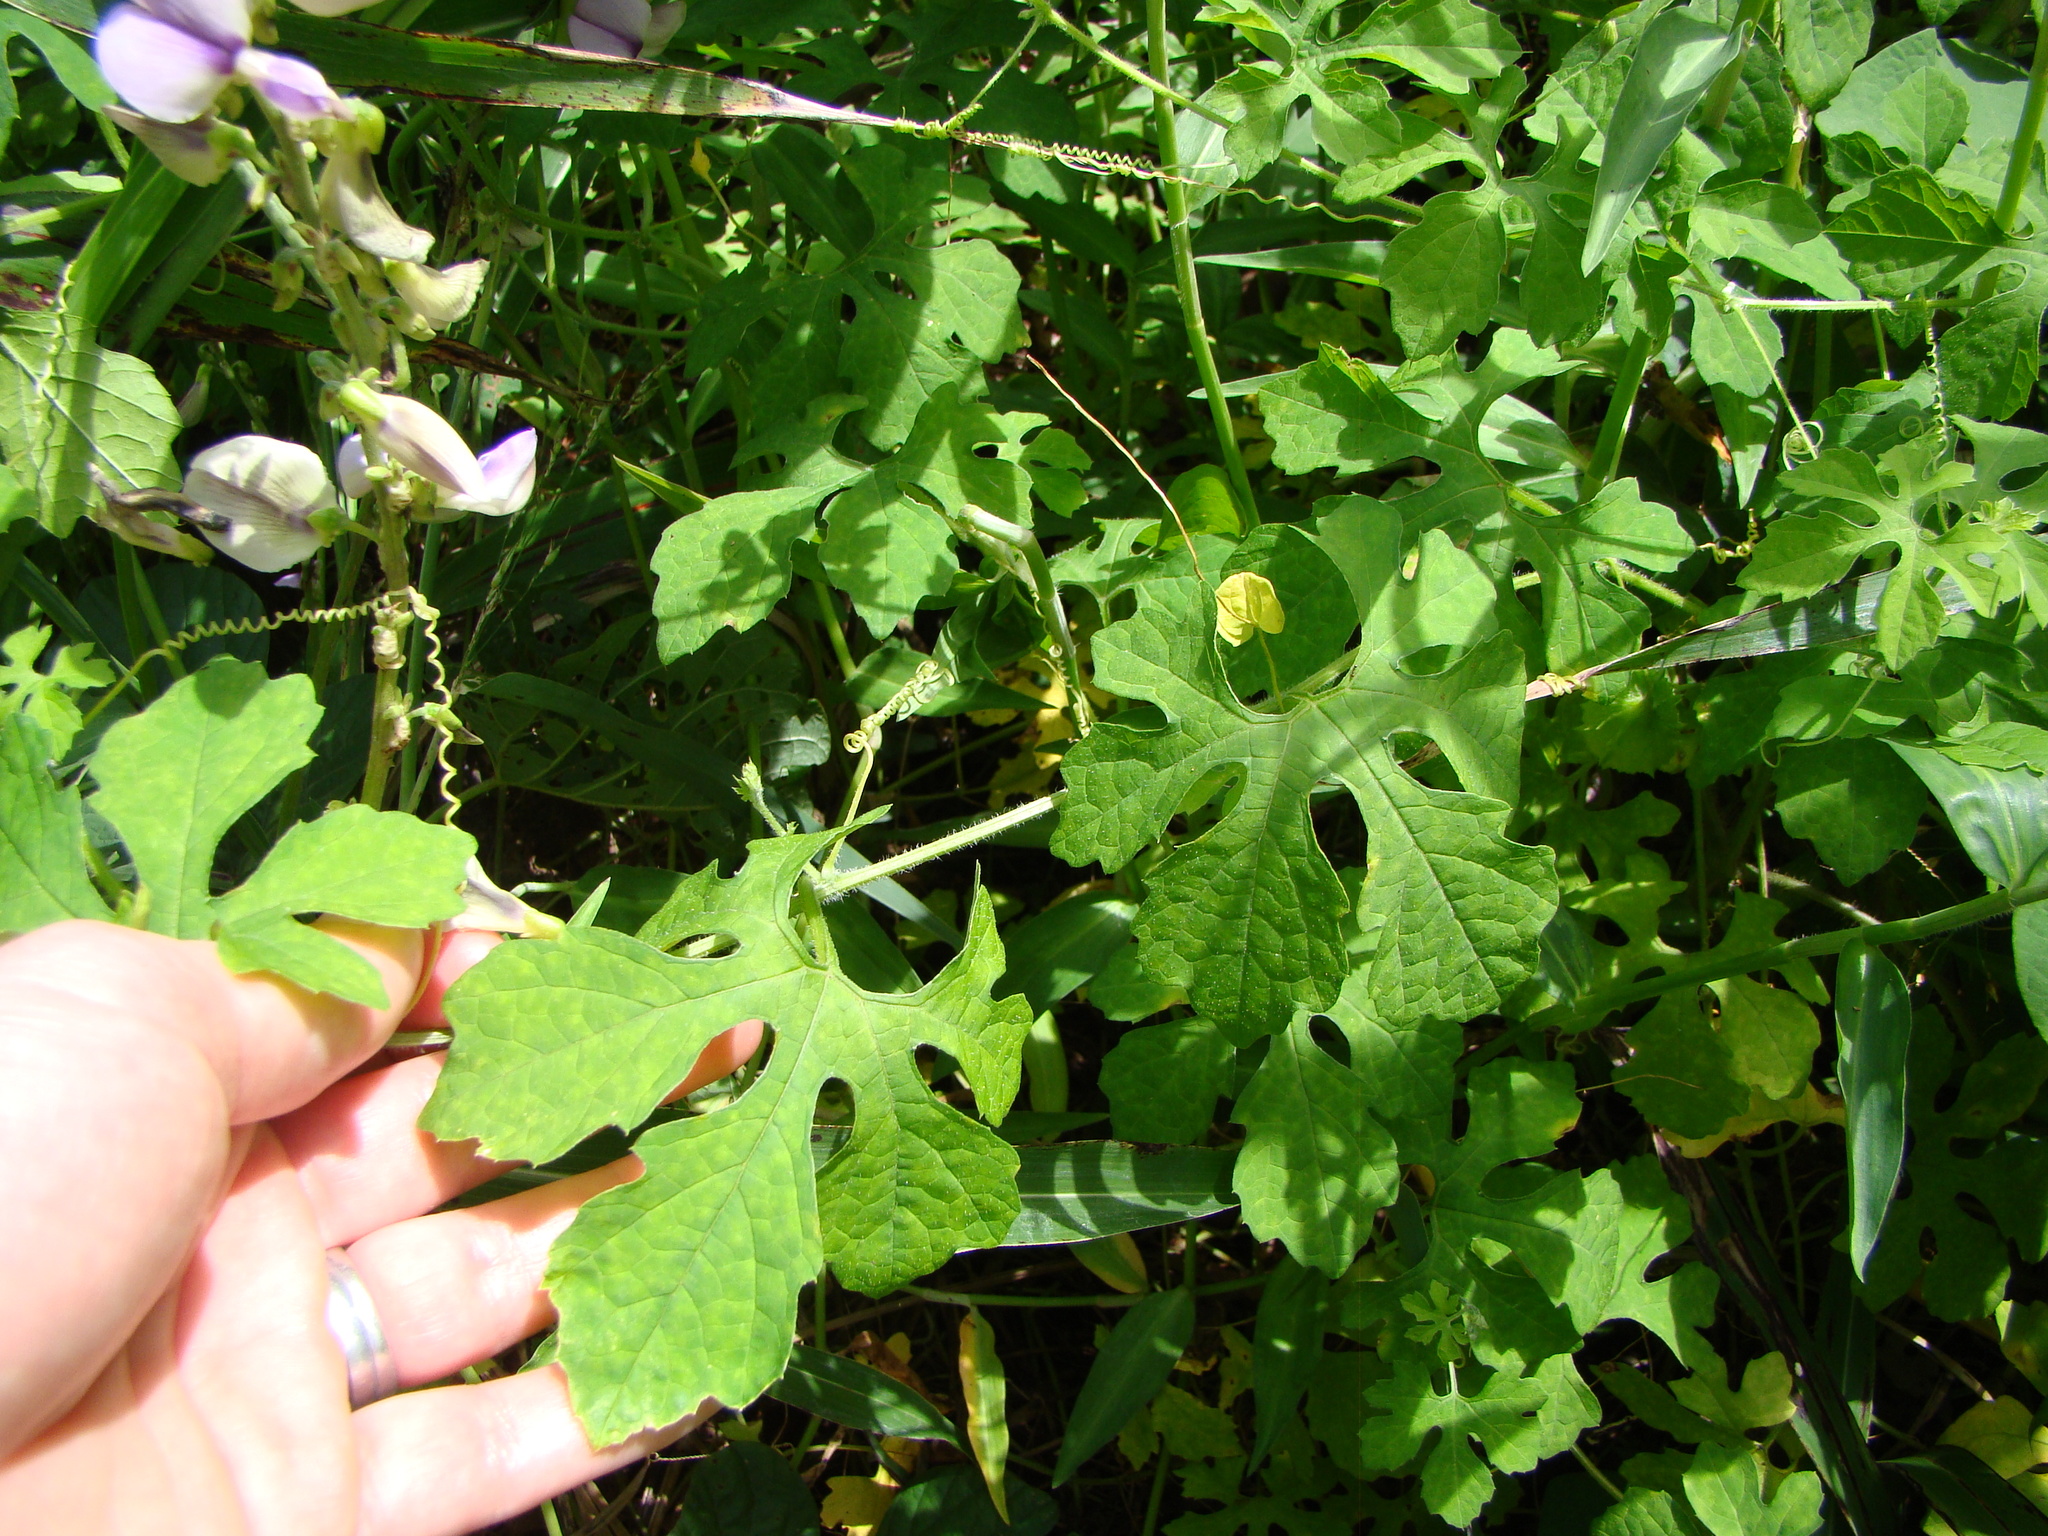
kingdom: Plantae
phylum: Tracheophyta
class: Magnoliopsida
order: Cucurbitales
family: Cucurbitaceae
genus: Momordica
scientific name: Momordica charantia
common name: Balsampear
